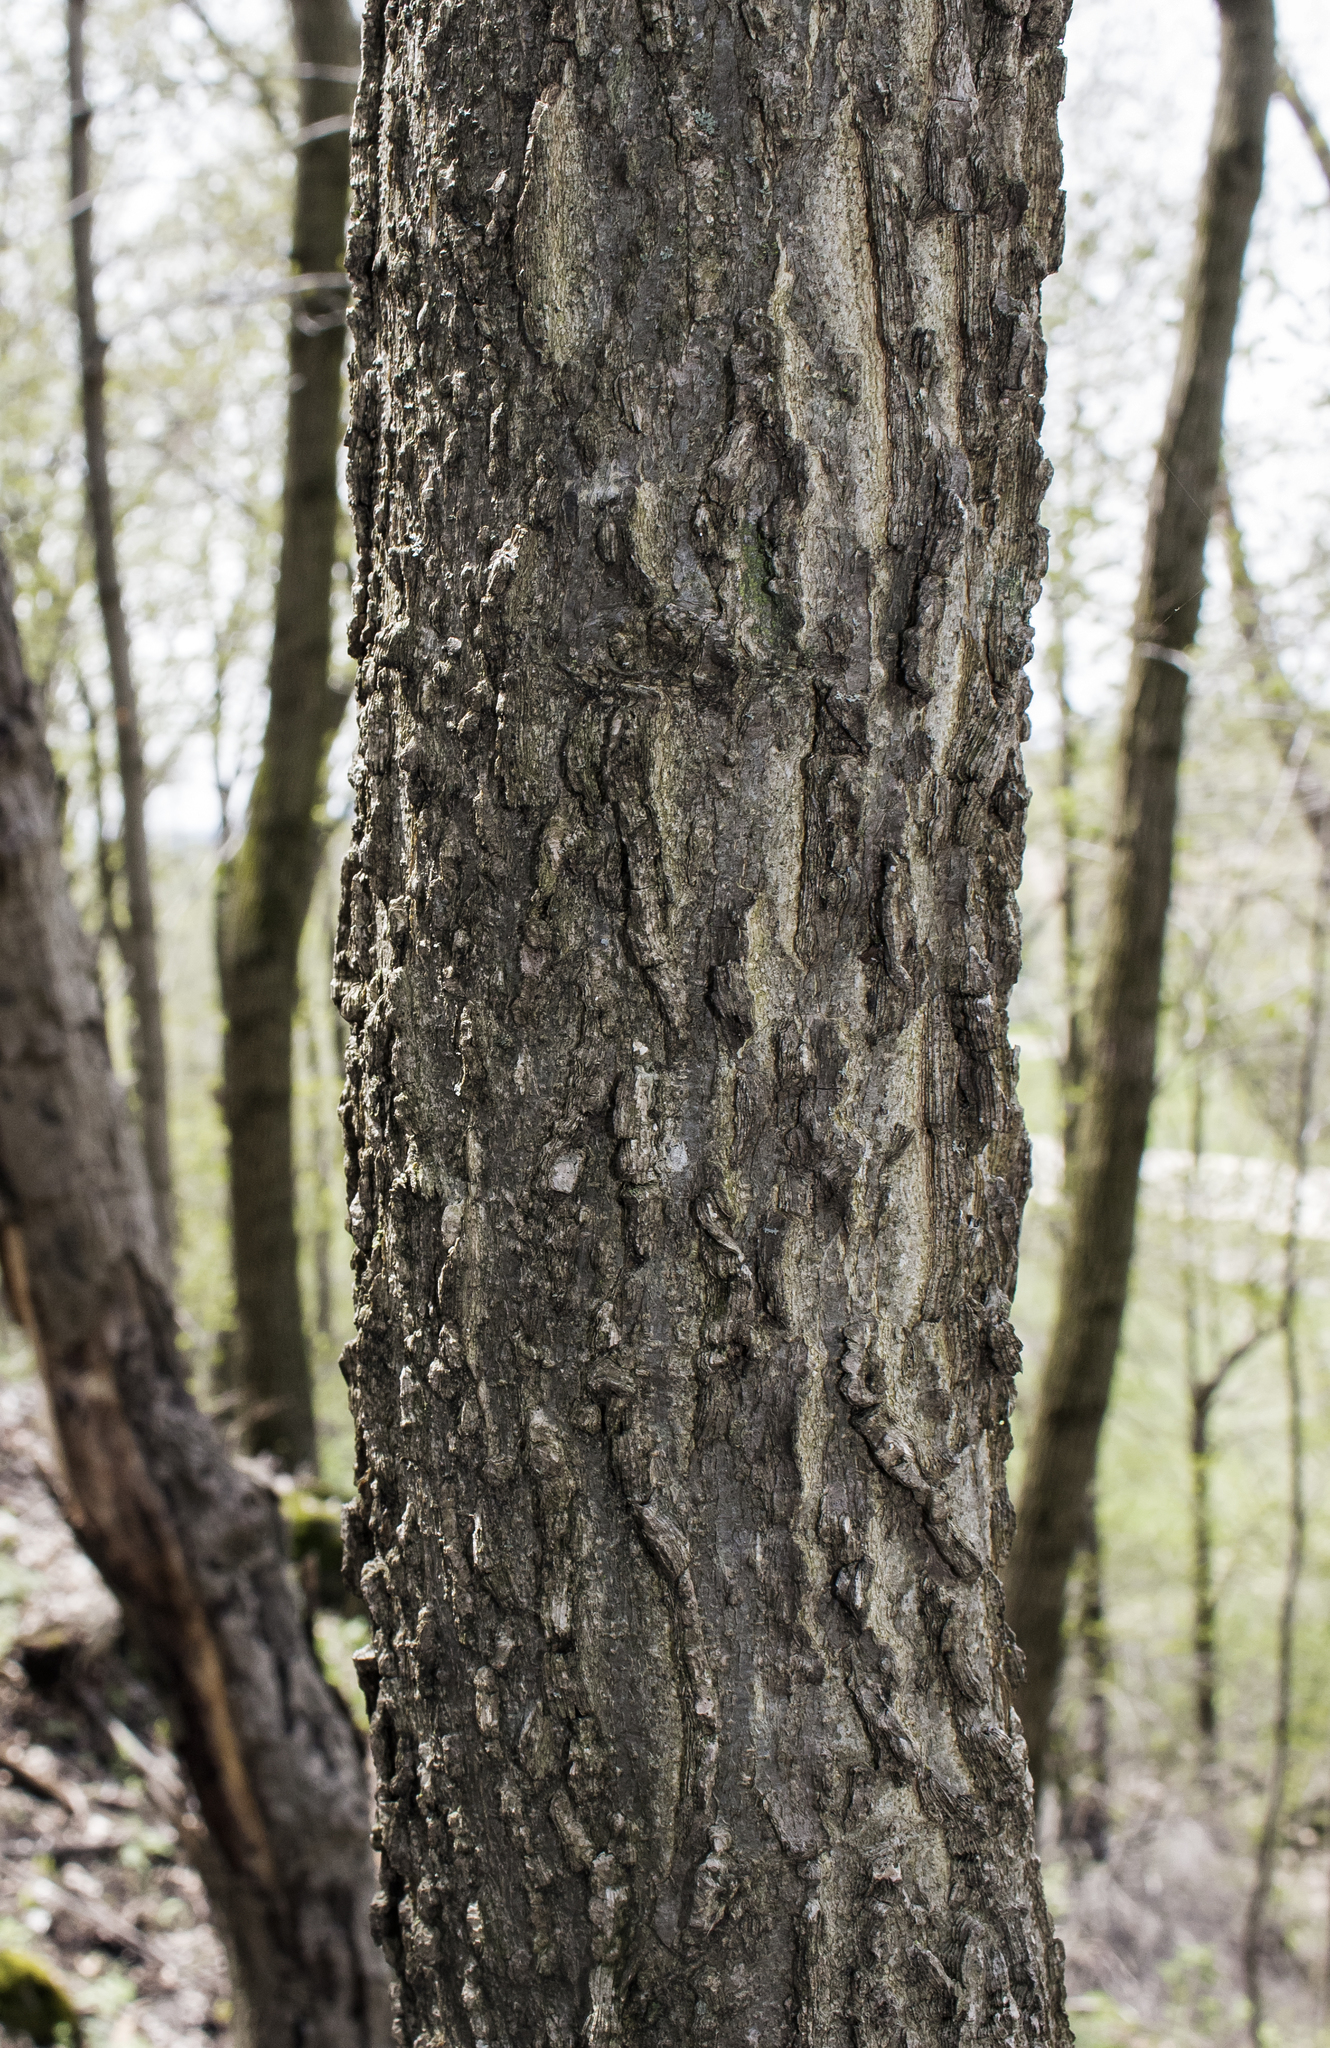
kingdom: Plantae
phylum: Tracheophyta
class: Magnoliopsida
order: Rosales
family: Cannabaceae
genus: Celtis
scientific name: Celtis occidentalis
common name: Common hackberry
